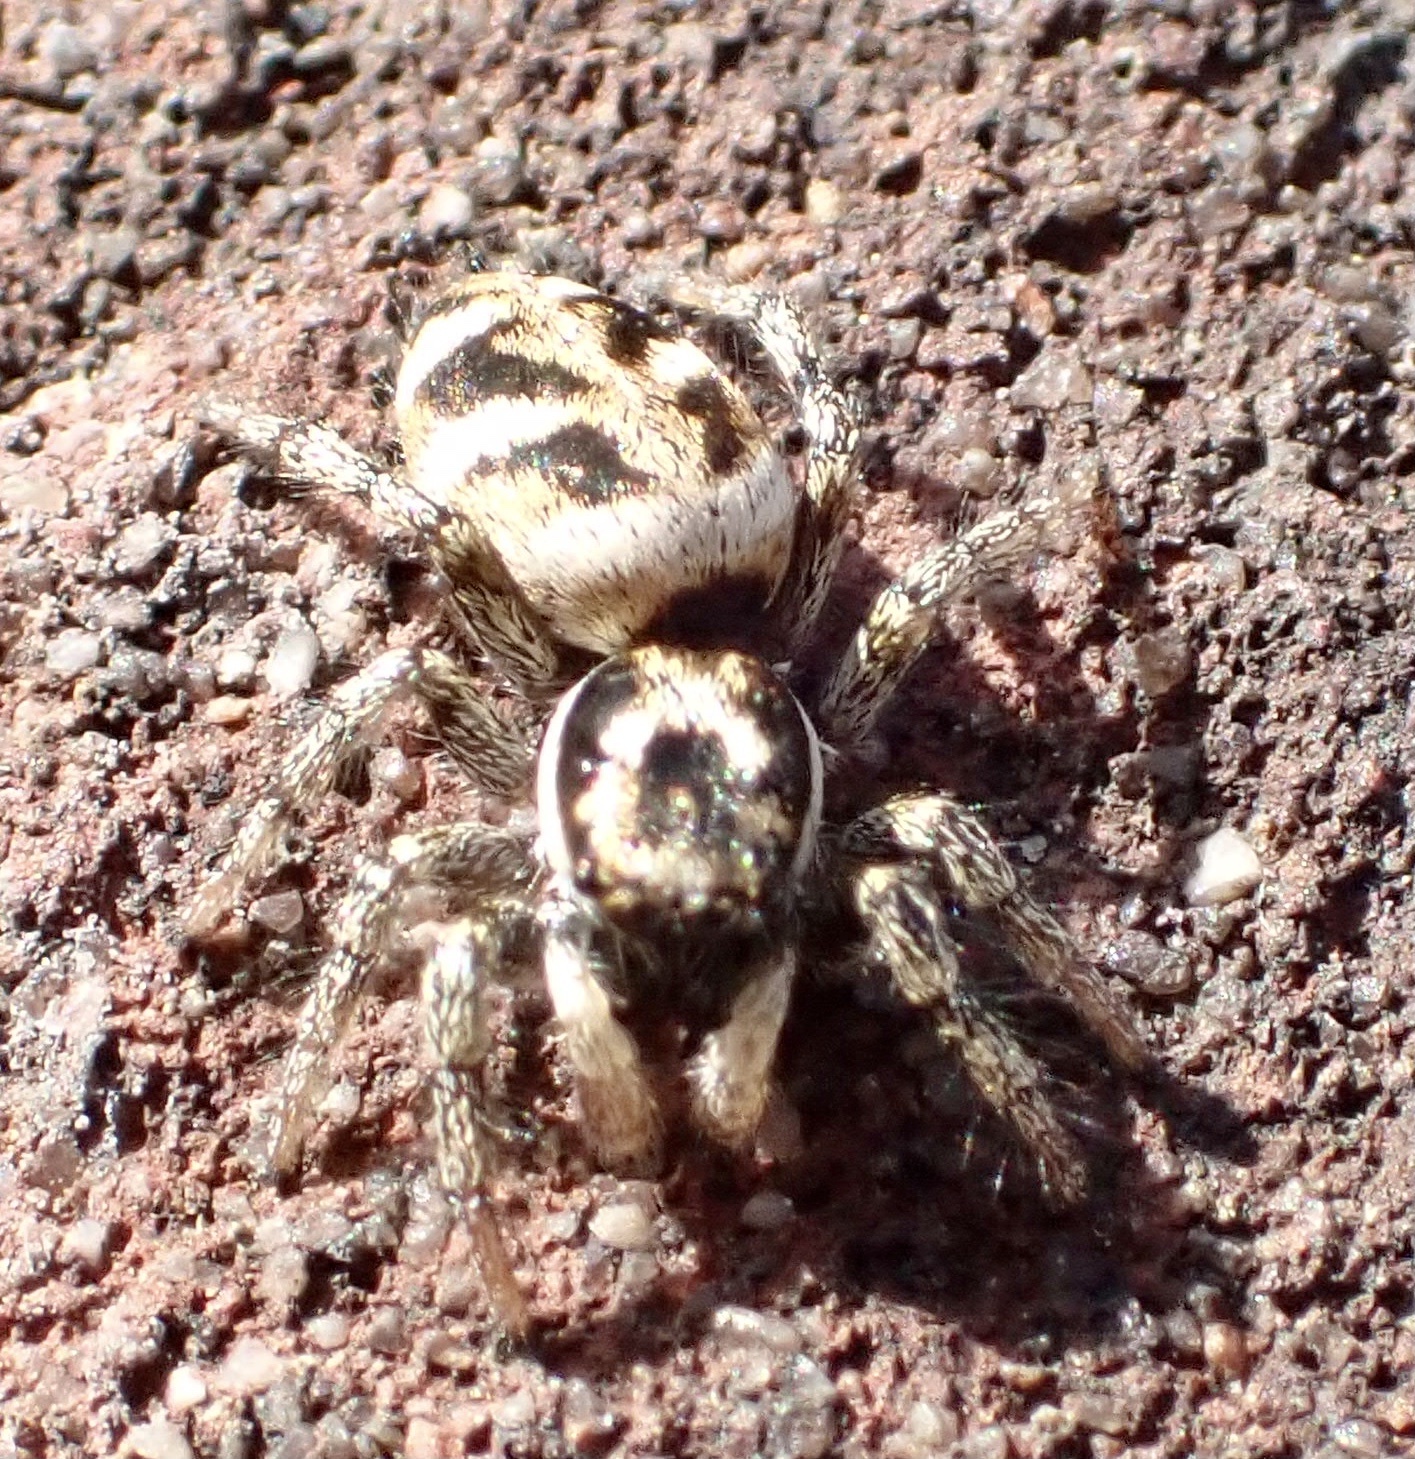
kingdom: Animalia
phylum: Arthropoda
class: Arachnida
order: Araneae
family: Salticidae
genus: Salticus
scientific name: Salticus scenicus
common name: Zebra jumper
